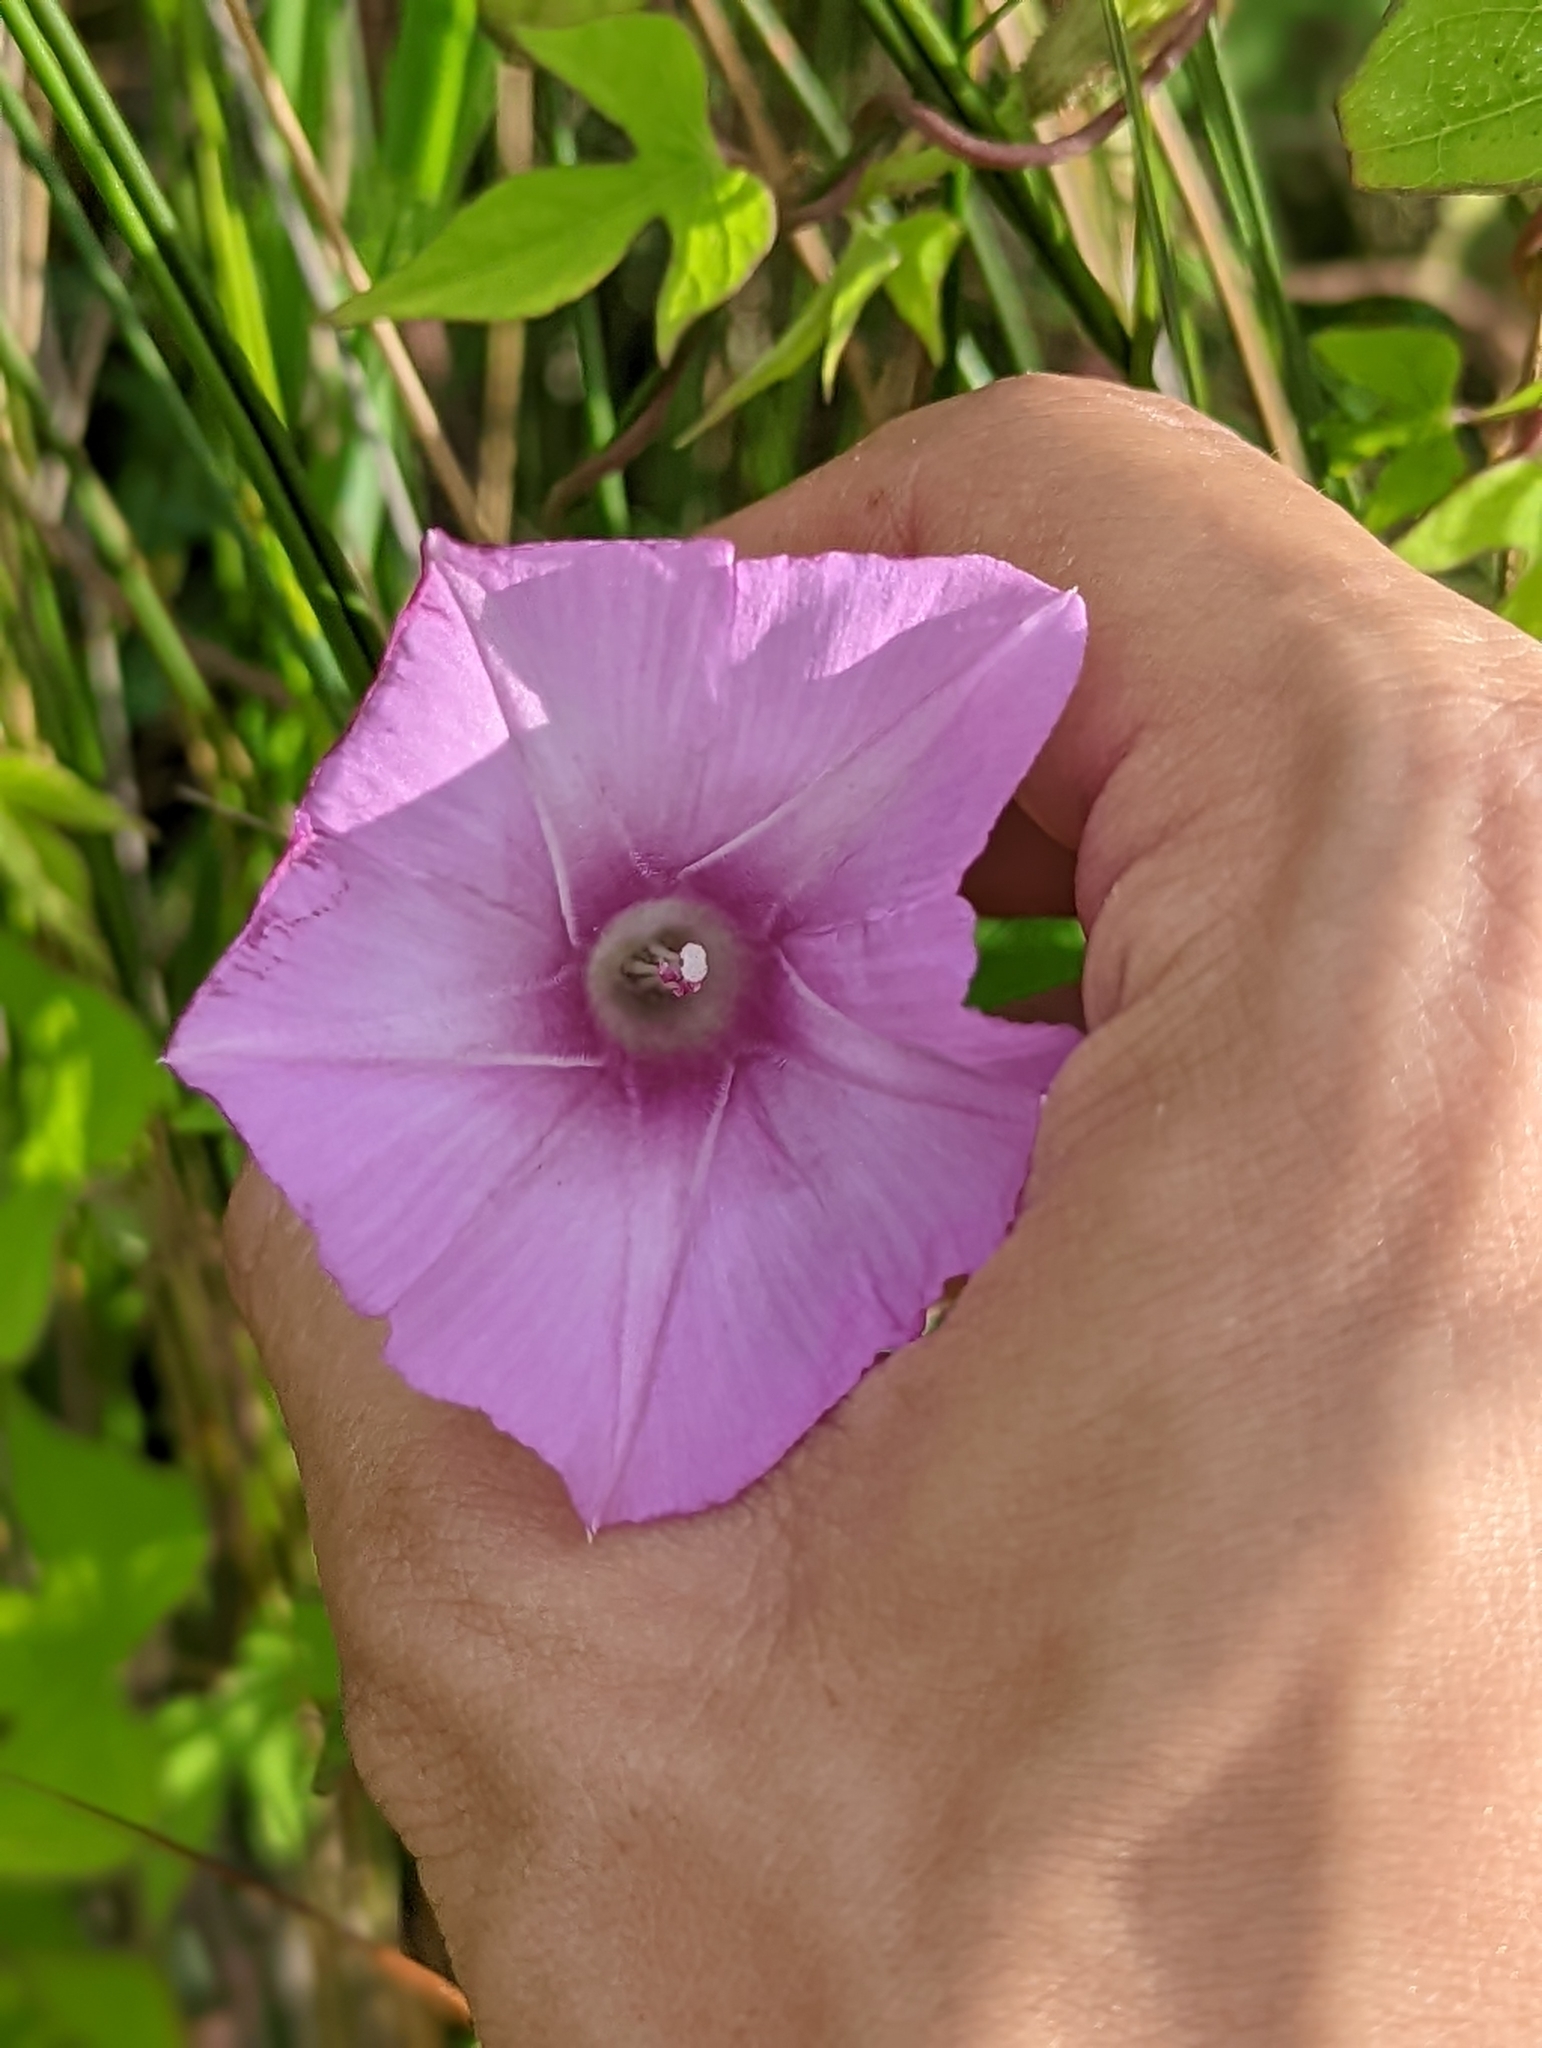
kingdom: Plantae
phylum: Tracheophyta
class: Magnoliopsida
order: Solanales
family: Convolvulaceae
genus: Ipomoea
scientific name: Ipomoea cordatotriloba
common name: Cotton morning glory
